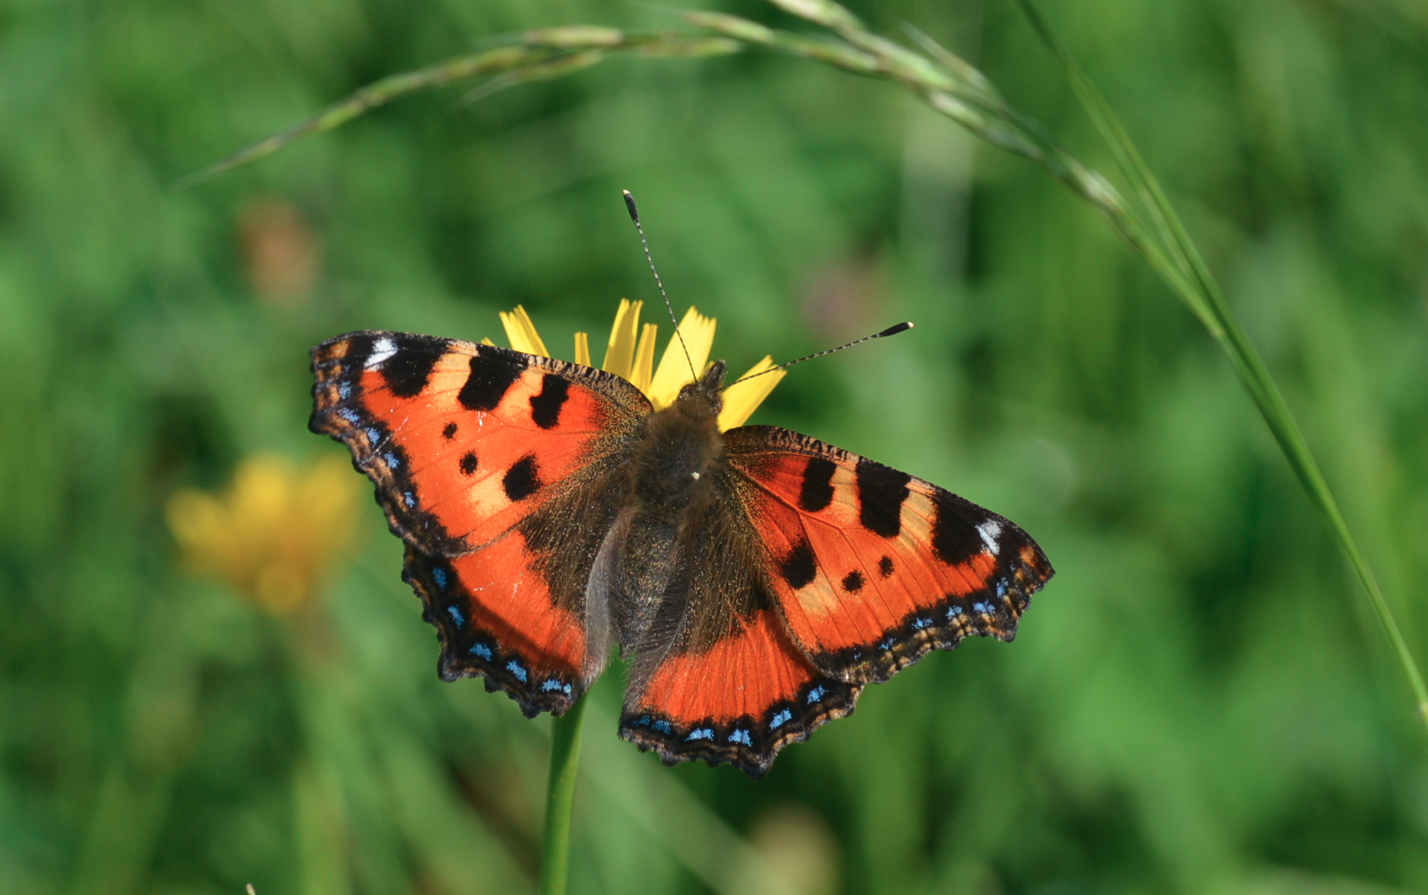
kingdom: Animalia
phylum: Arthropoda
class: Insecta
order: Lepidoptera
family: Nymphalidae
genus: Aglais
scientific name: Aglais urticae
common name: Small tortoiseshell
